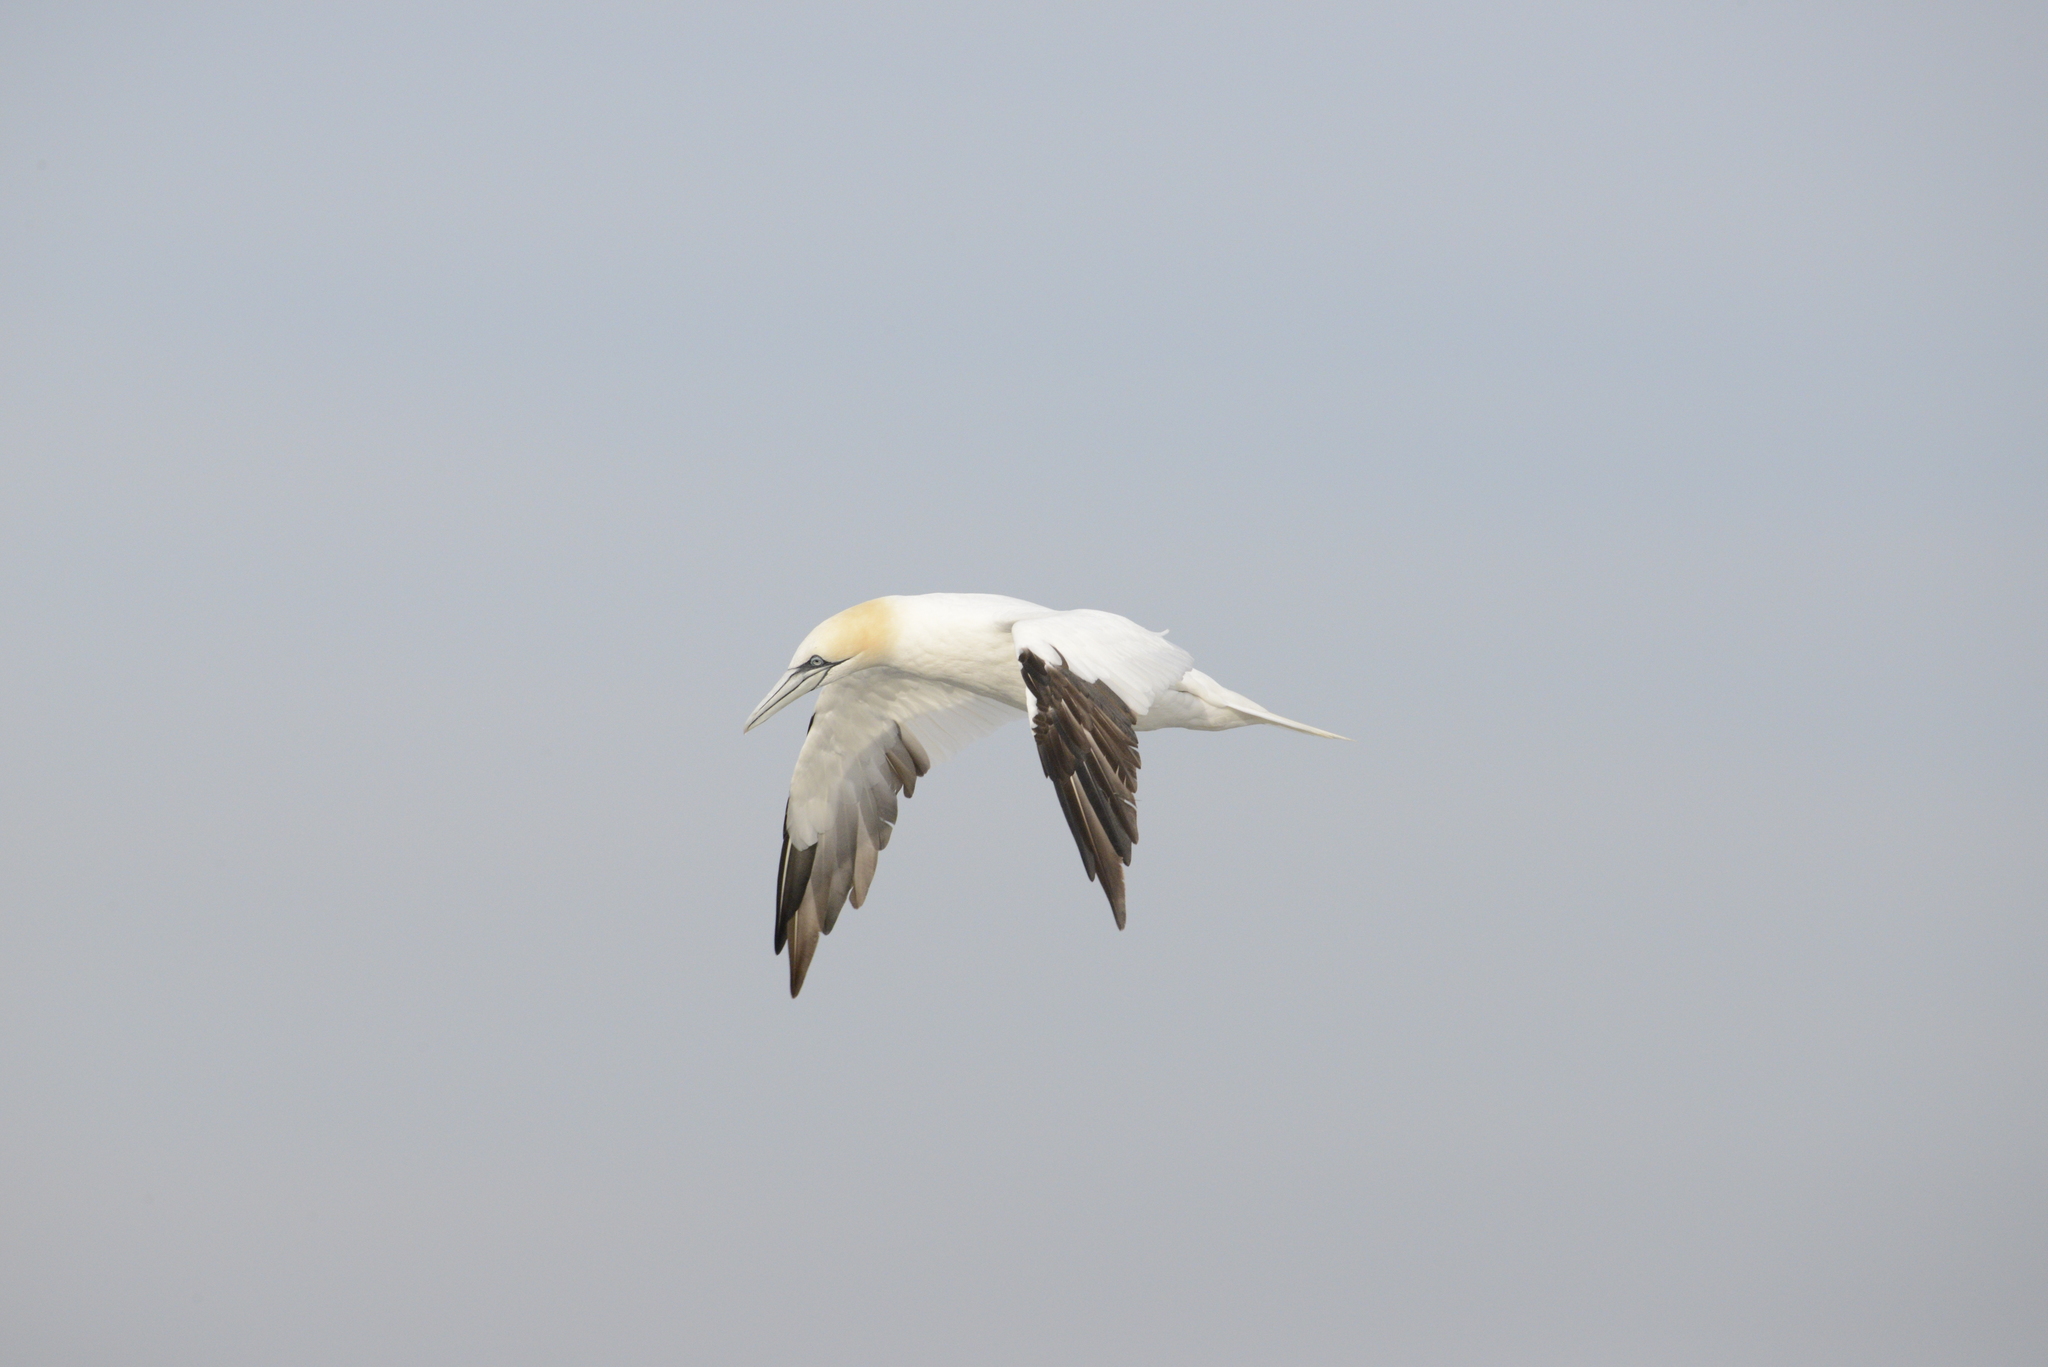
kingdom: Animalia
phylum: Chordata
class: Aves
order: Suliformes
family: Sulidae
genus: Morus
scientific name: Morus bassanus
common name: Northern gannet
